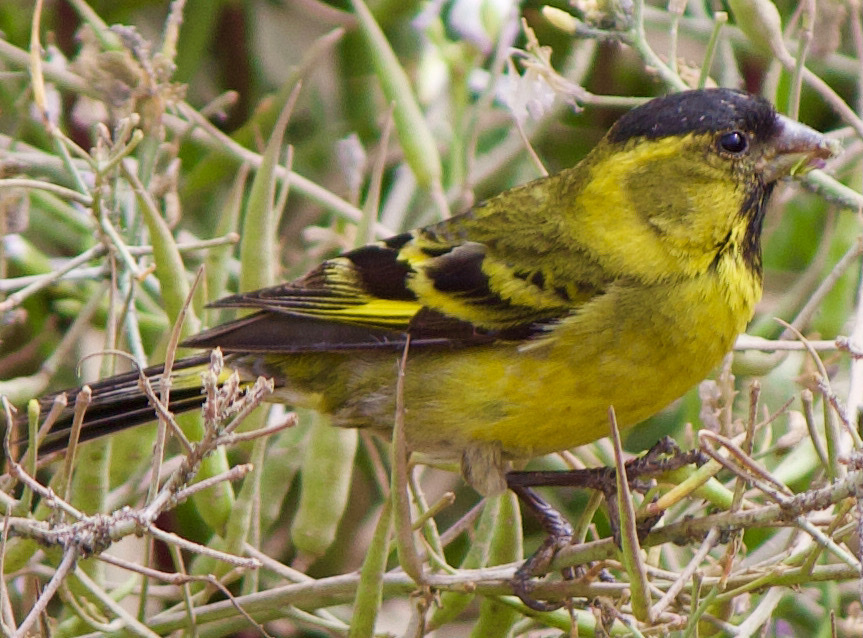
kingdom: Animalia
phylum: Chordata
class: Aves
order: Passeriformes
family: Fringillidae
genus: Spinus
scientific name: Spinus barbatus
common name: Black-chinned siskin
